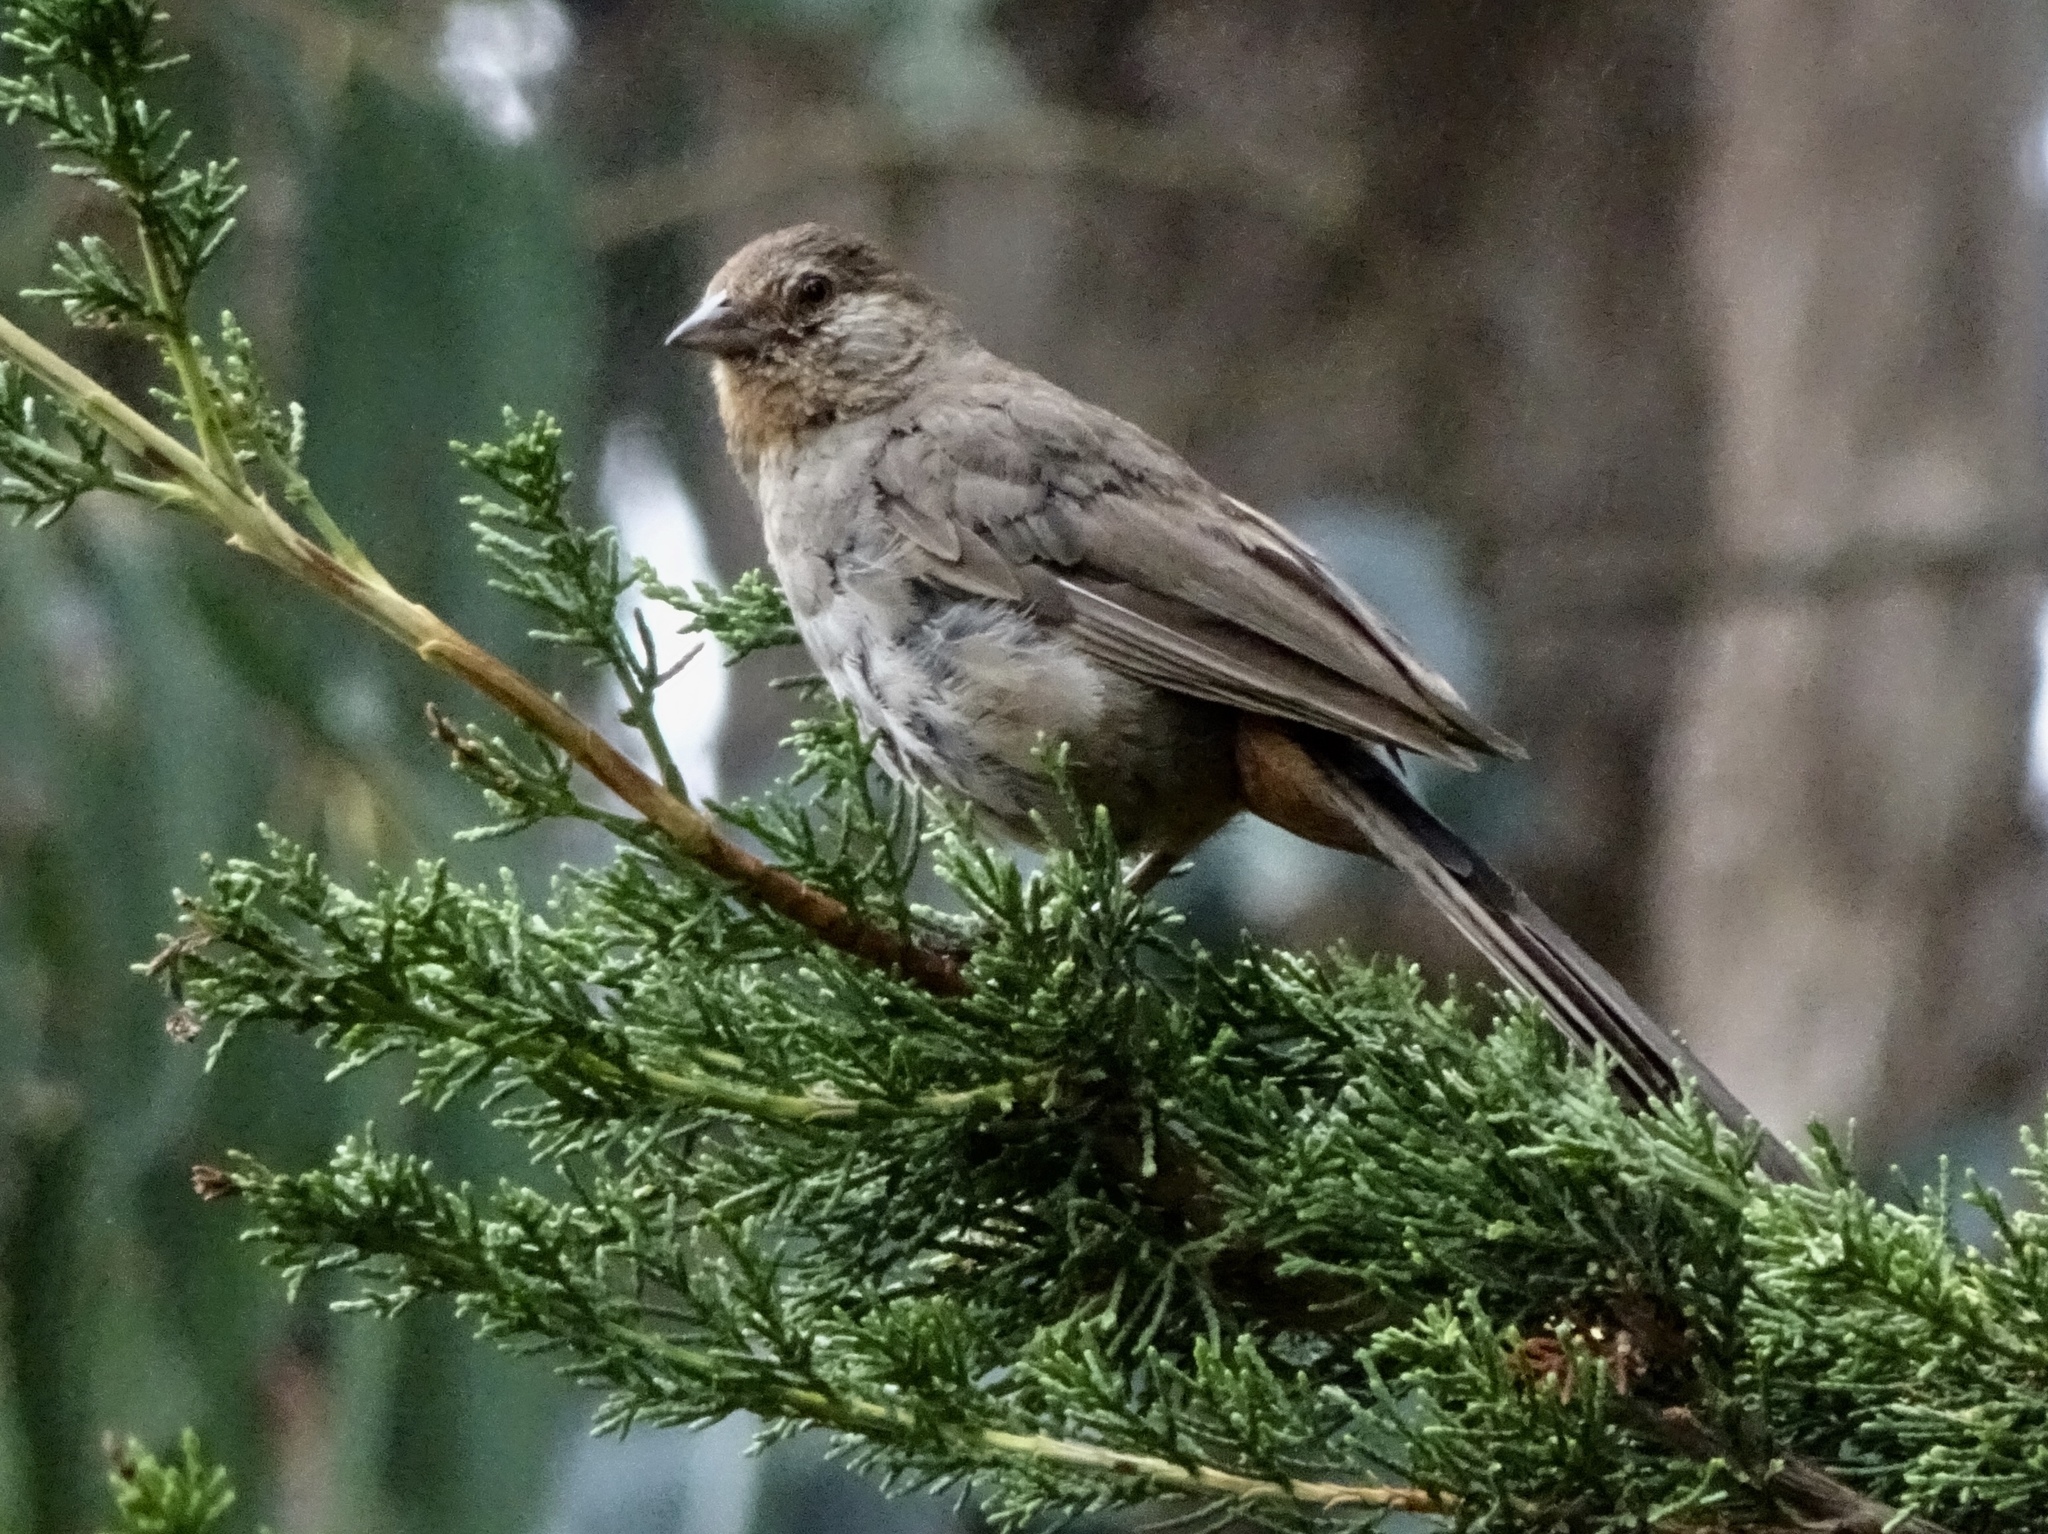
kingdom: Animalia
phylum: Chordata
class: Aves
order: Passeriformes
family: Passerellidae
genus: Melozone
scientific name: Melozone crissalis
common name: California towhee
